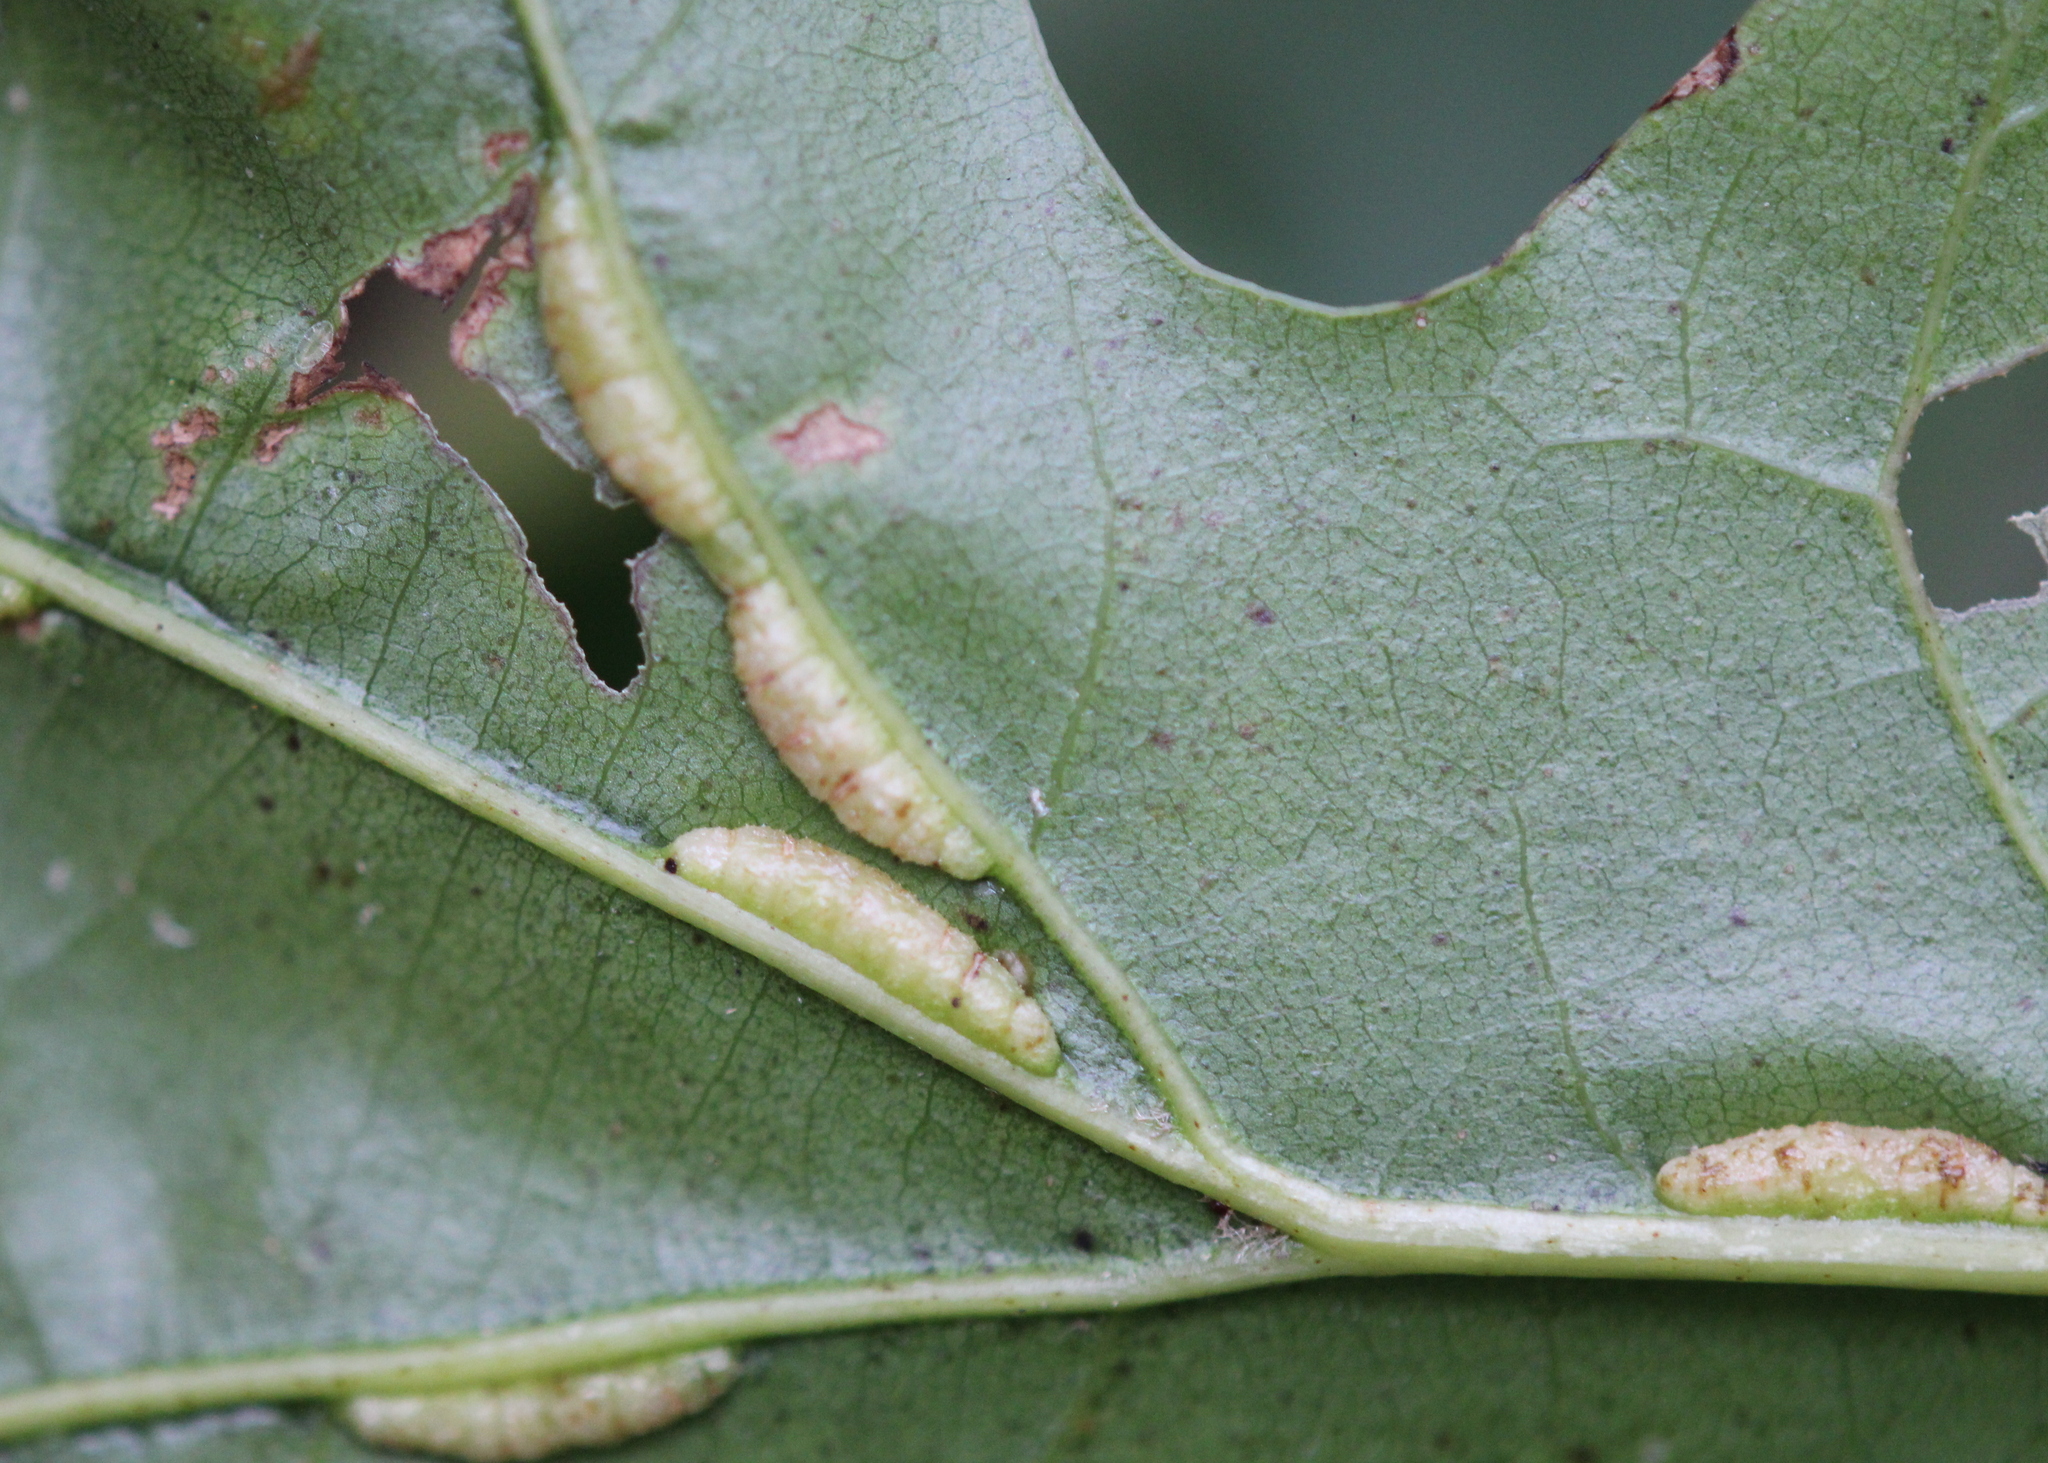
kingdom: Animalia
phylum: Arthropoda
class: Insecta
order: Diptera
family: Cecidomyiidae
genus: Macrodiplosis
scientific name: Macrodiplosis q-orucum
